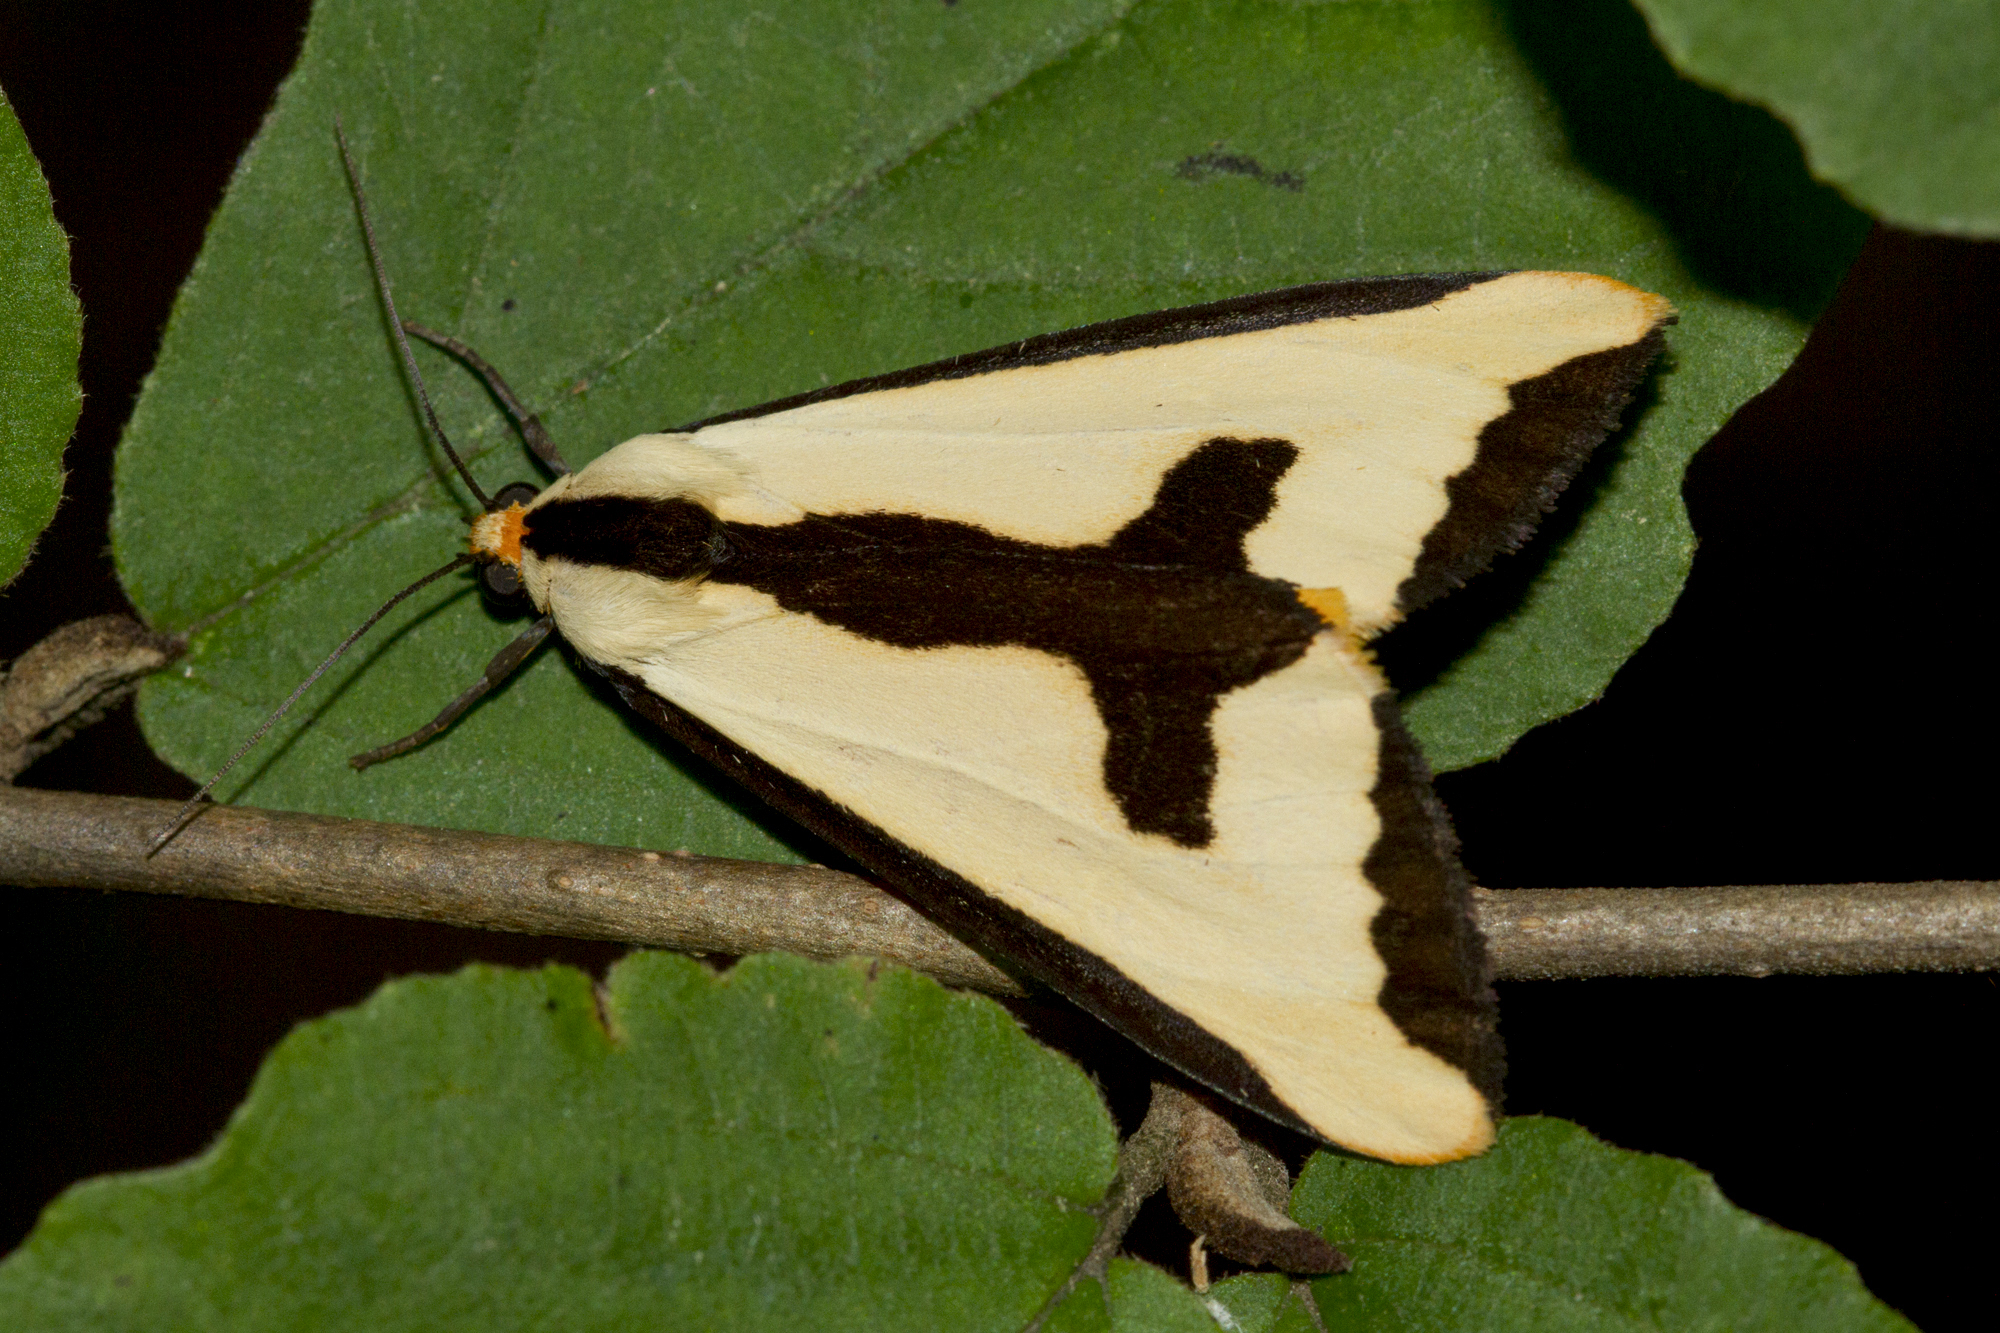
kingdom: Animalia
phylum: Arthropoda
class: Insecta
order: Lepidoptera
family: Erebidae
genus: Haploa
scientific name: Haploa clymene
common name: Clymene moth
